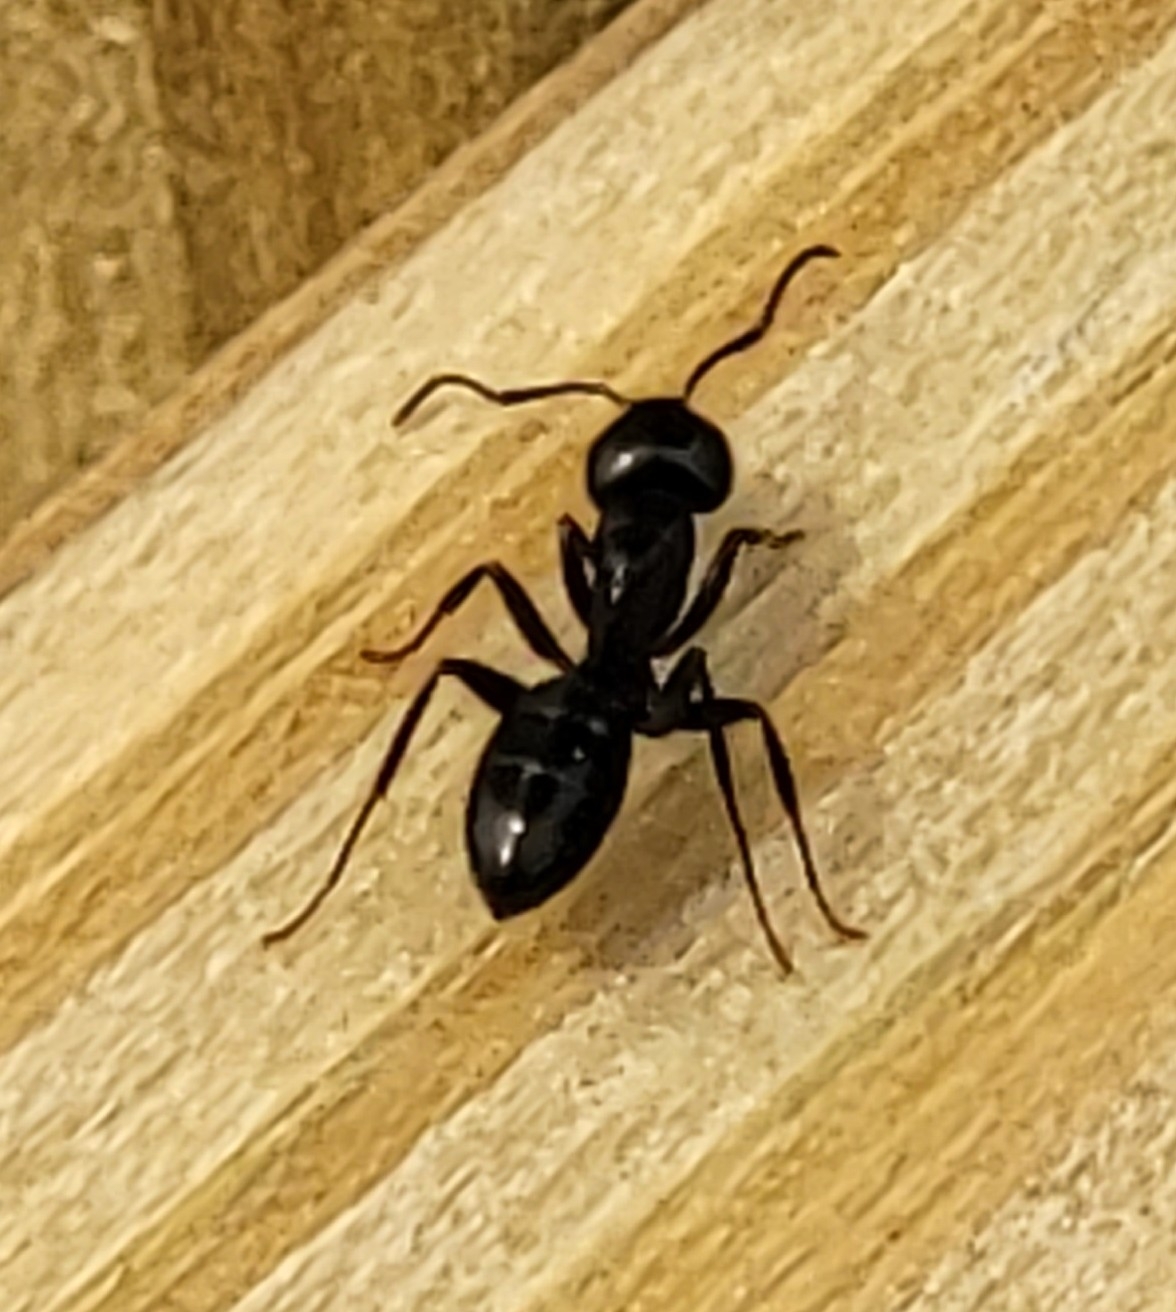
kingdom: Animalia
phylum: Arthropoda
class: Insecta
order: Hymenoptera
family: Formicidae
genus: Myrmentoma
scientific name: Myrmentoma
